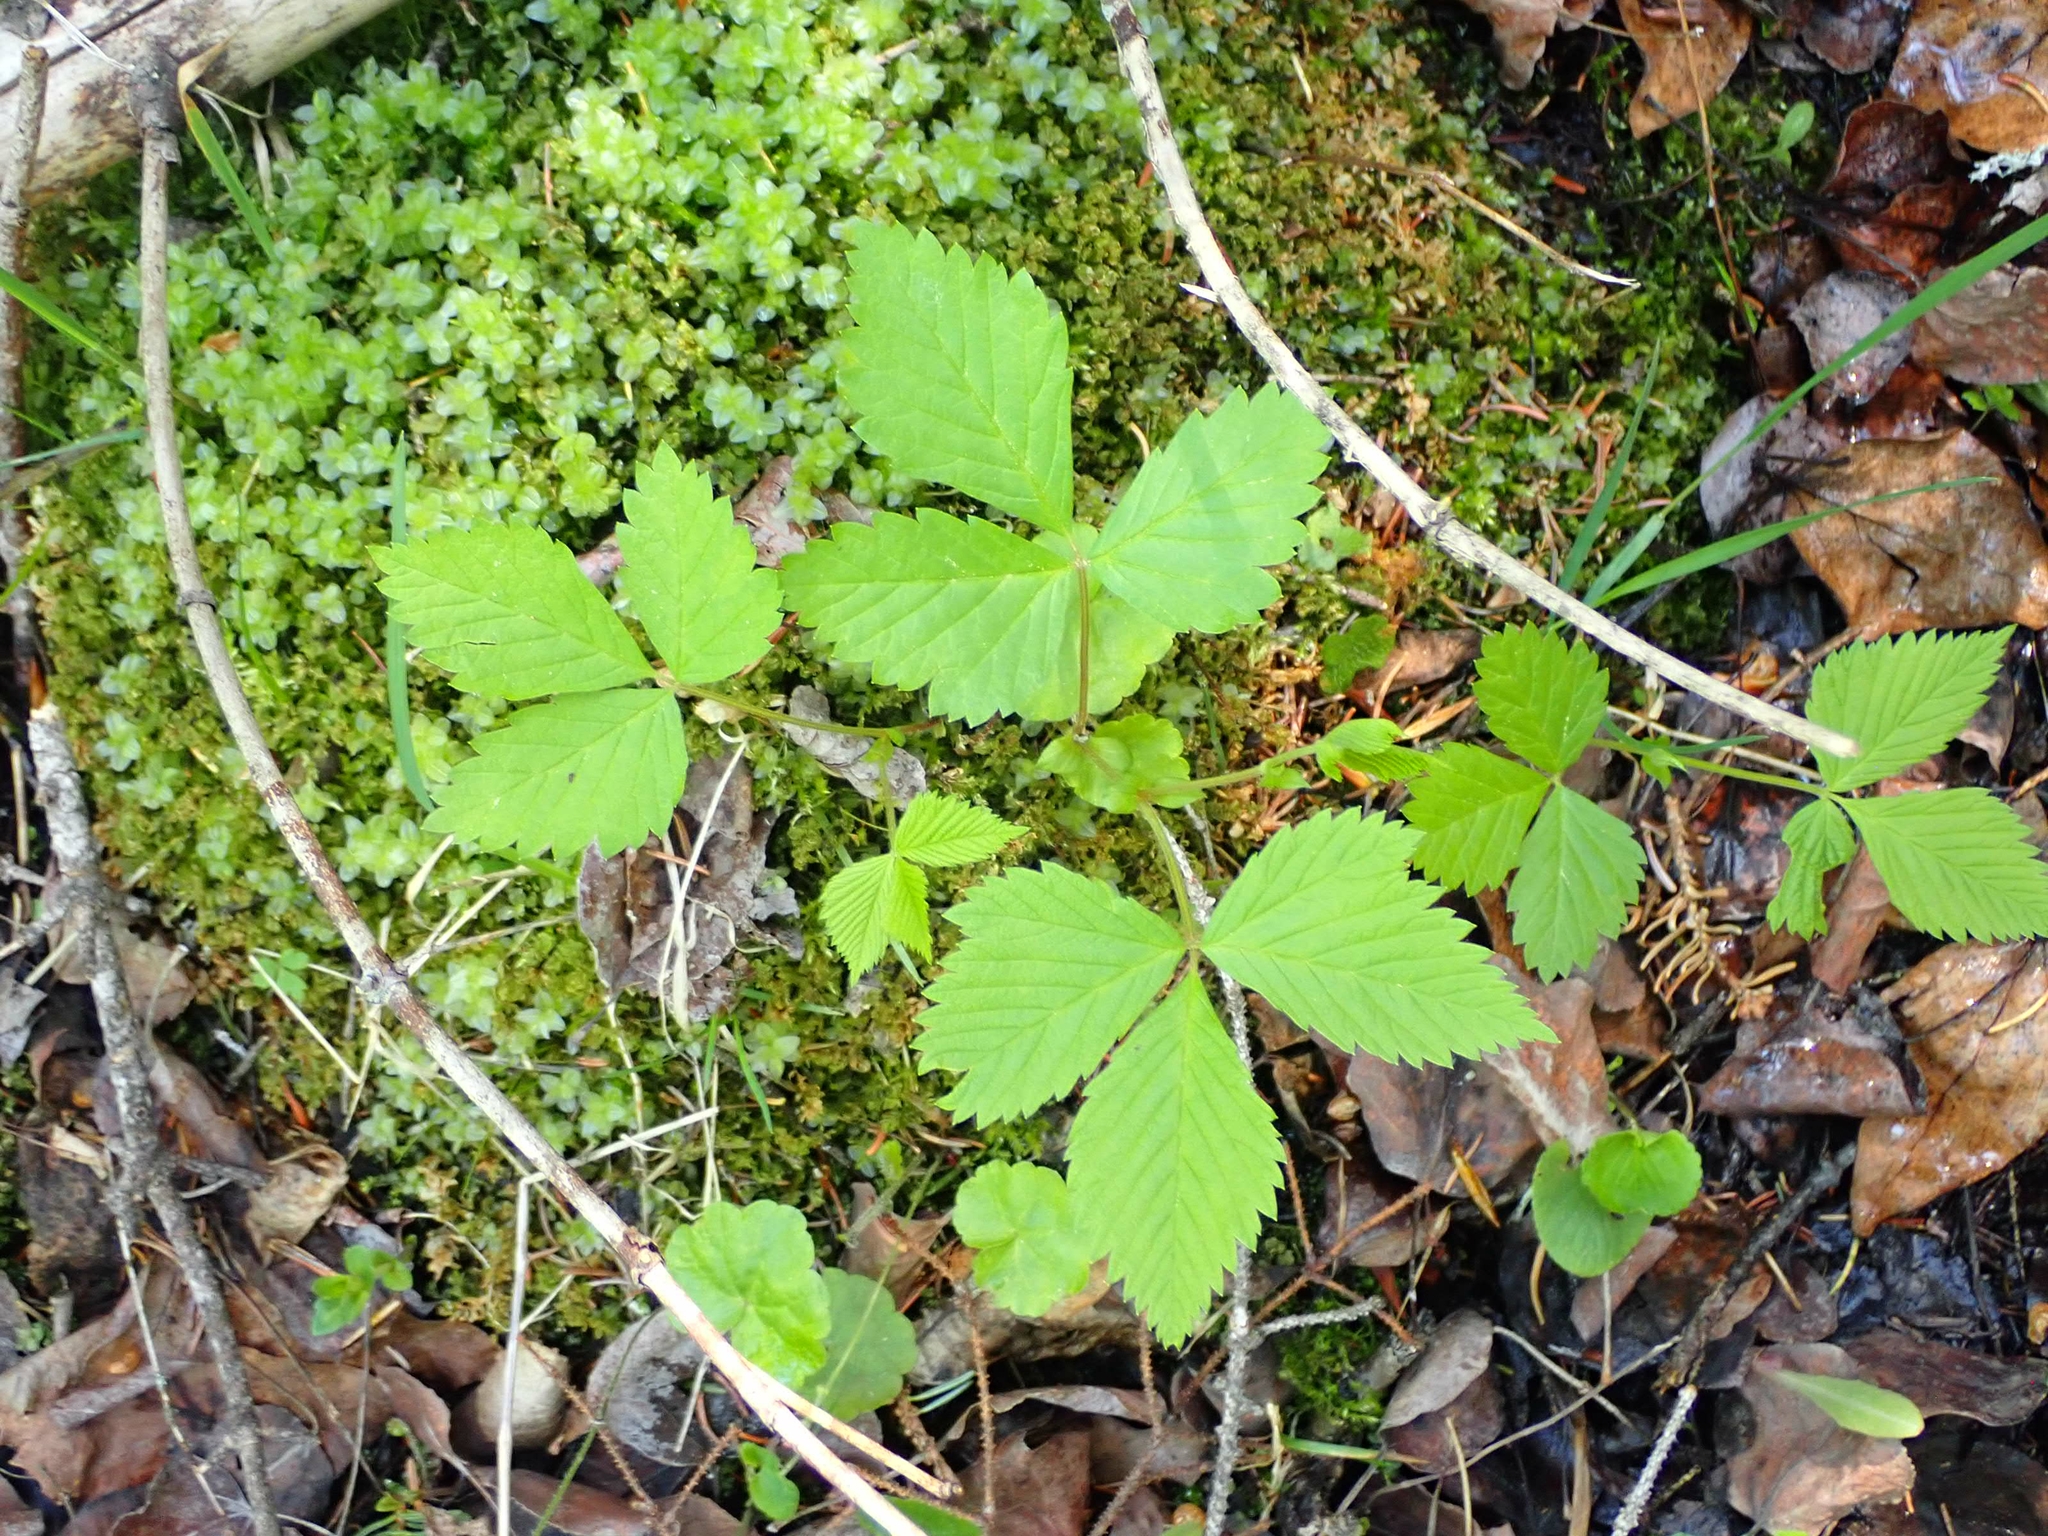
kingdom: Plantae
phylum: Tracheophyta
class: Magnoliopsida
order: Rosales
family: Rosaceae
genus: Rubus
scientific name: Rubus pubescens
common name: Dwarf raspberry
